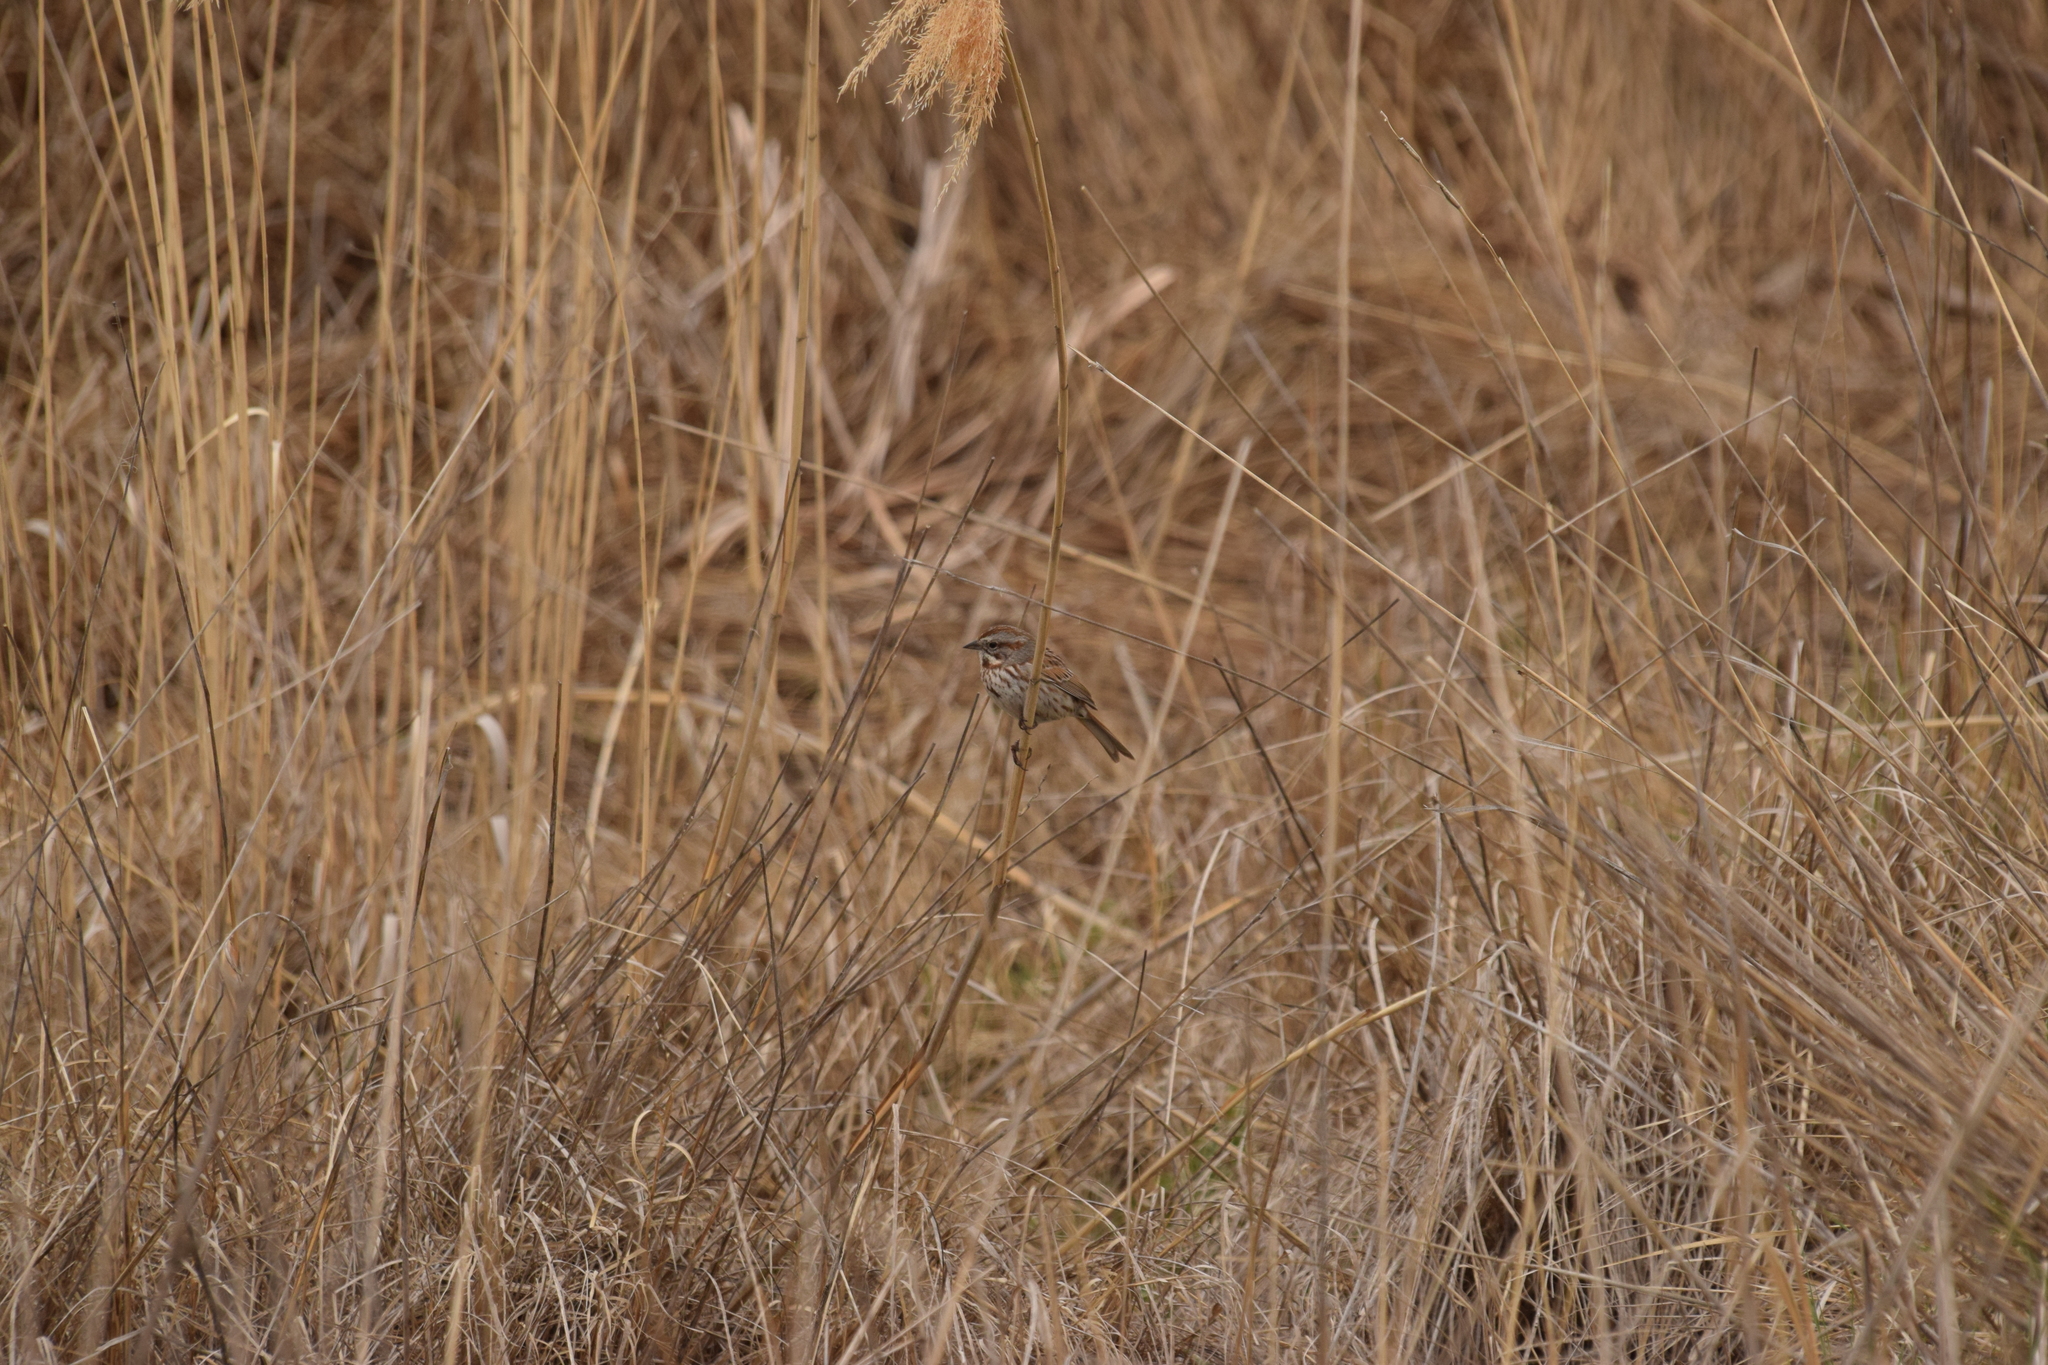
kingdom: Animalia
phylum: Chordata
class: Aves
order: Passeriformes
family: Passerellidae
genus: Melospiza
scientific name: Melospiza melodia
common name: Song sparrow
